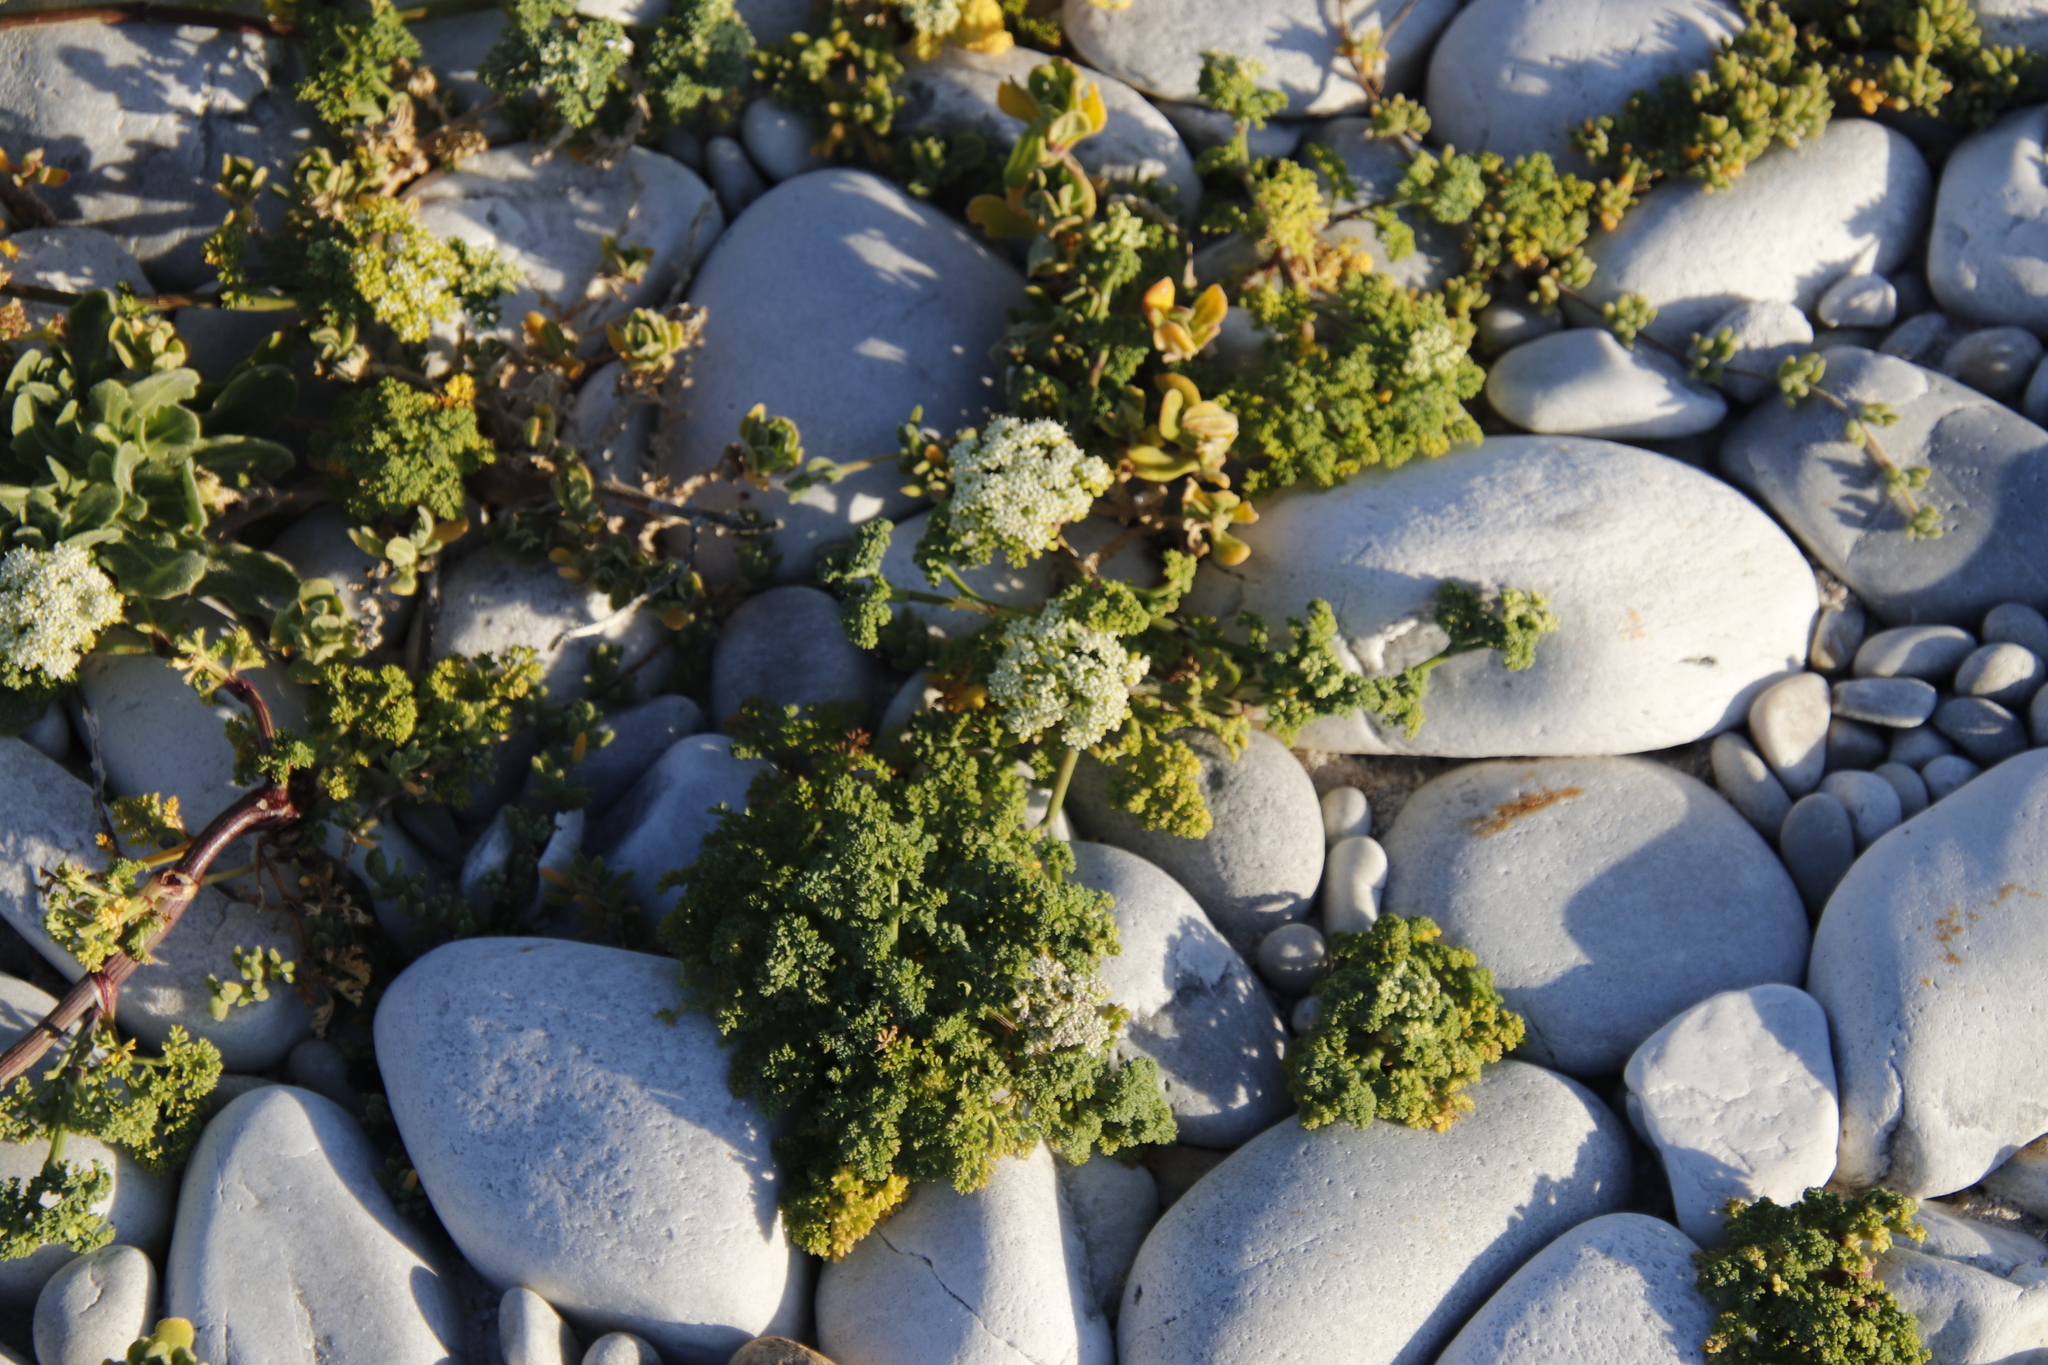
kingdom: Plantae
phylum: Tracheophyta
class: Magnoliopsida
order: Apiales
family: Apiaceae
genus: Dasispermum
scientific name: Dasispermum suffruticosum
